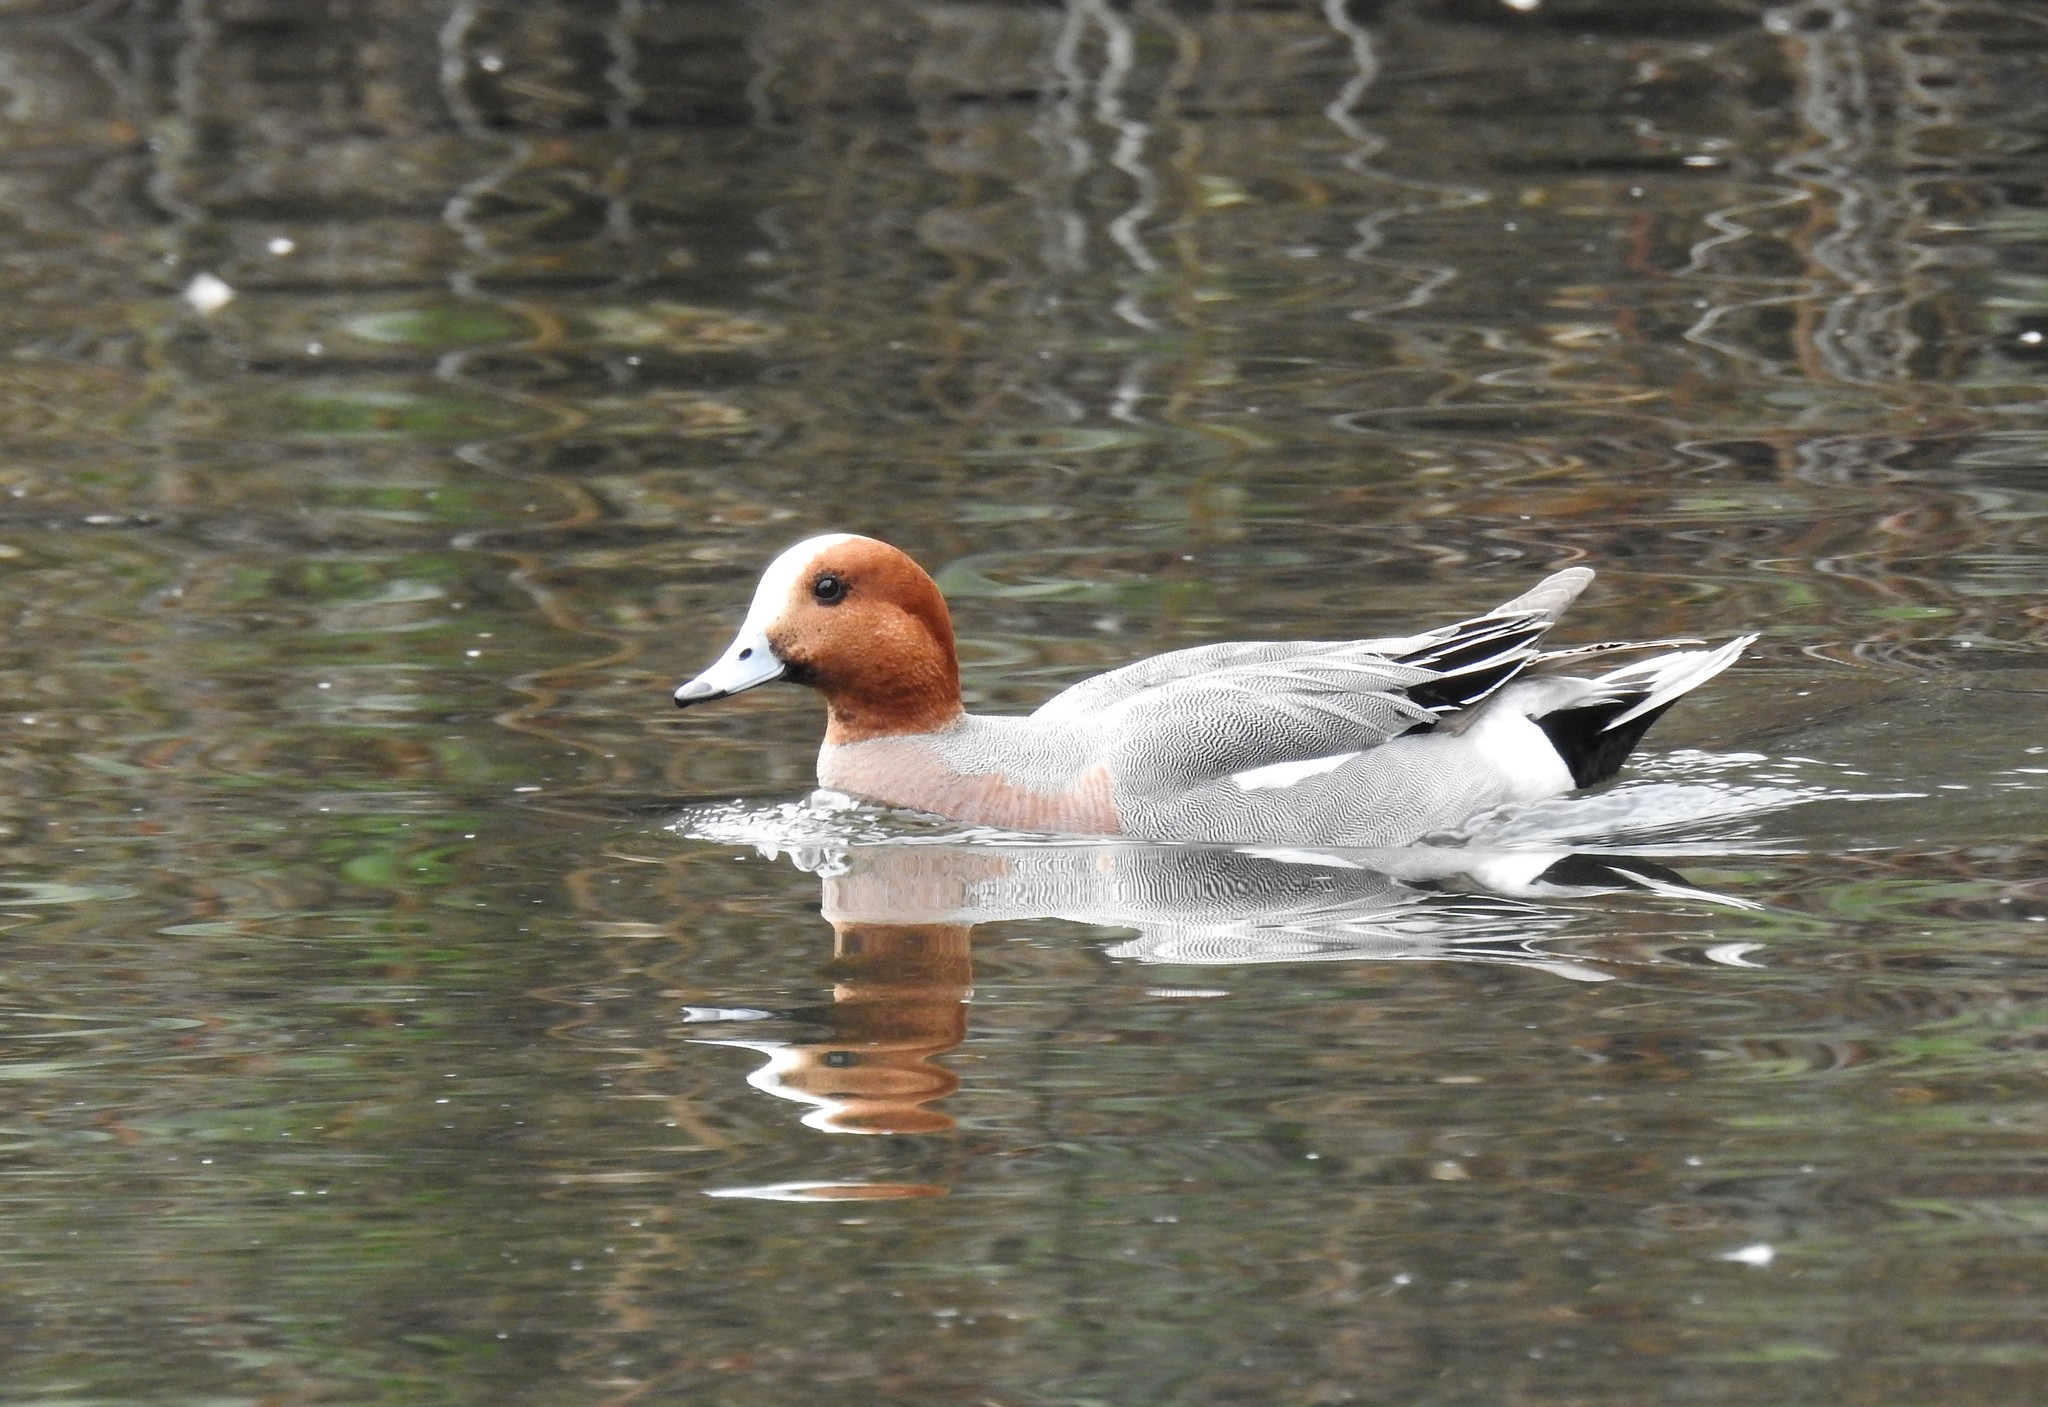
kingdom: Animalia
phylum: Chordata
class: Aves
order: Anseriformes
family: Anatidae
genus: Mareca
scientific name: Mareca penelope
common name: Eurasian wigeon
